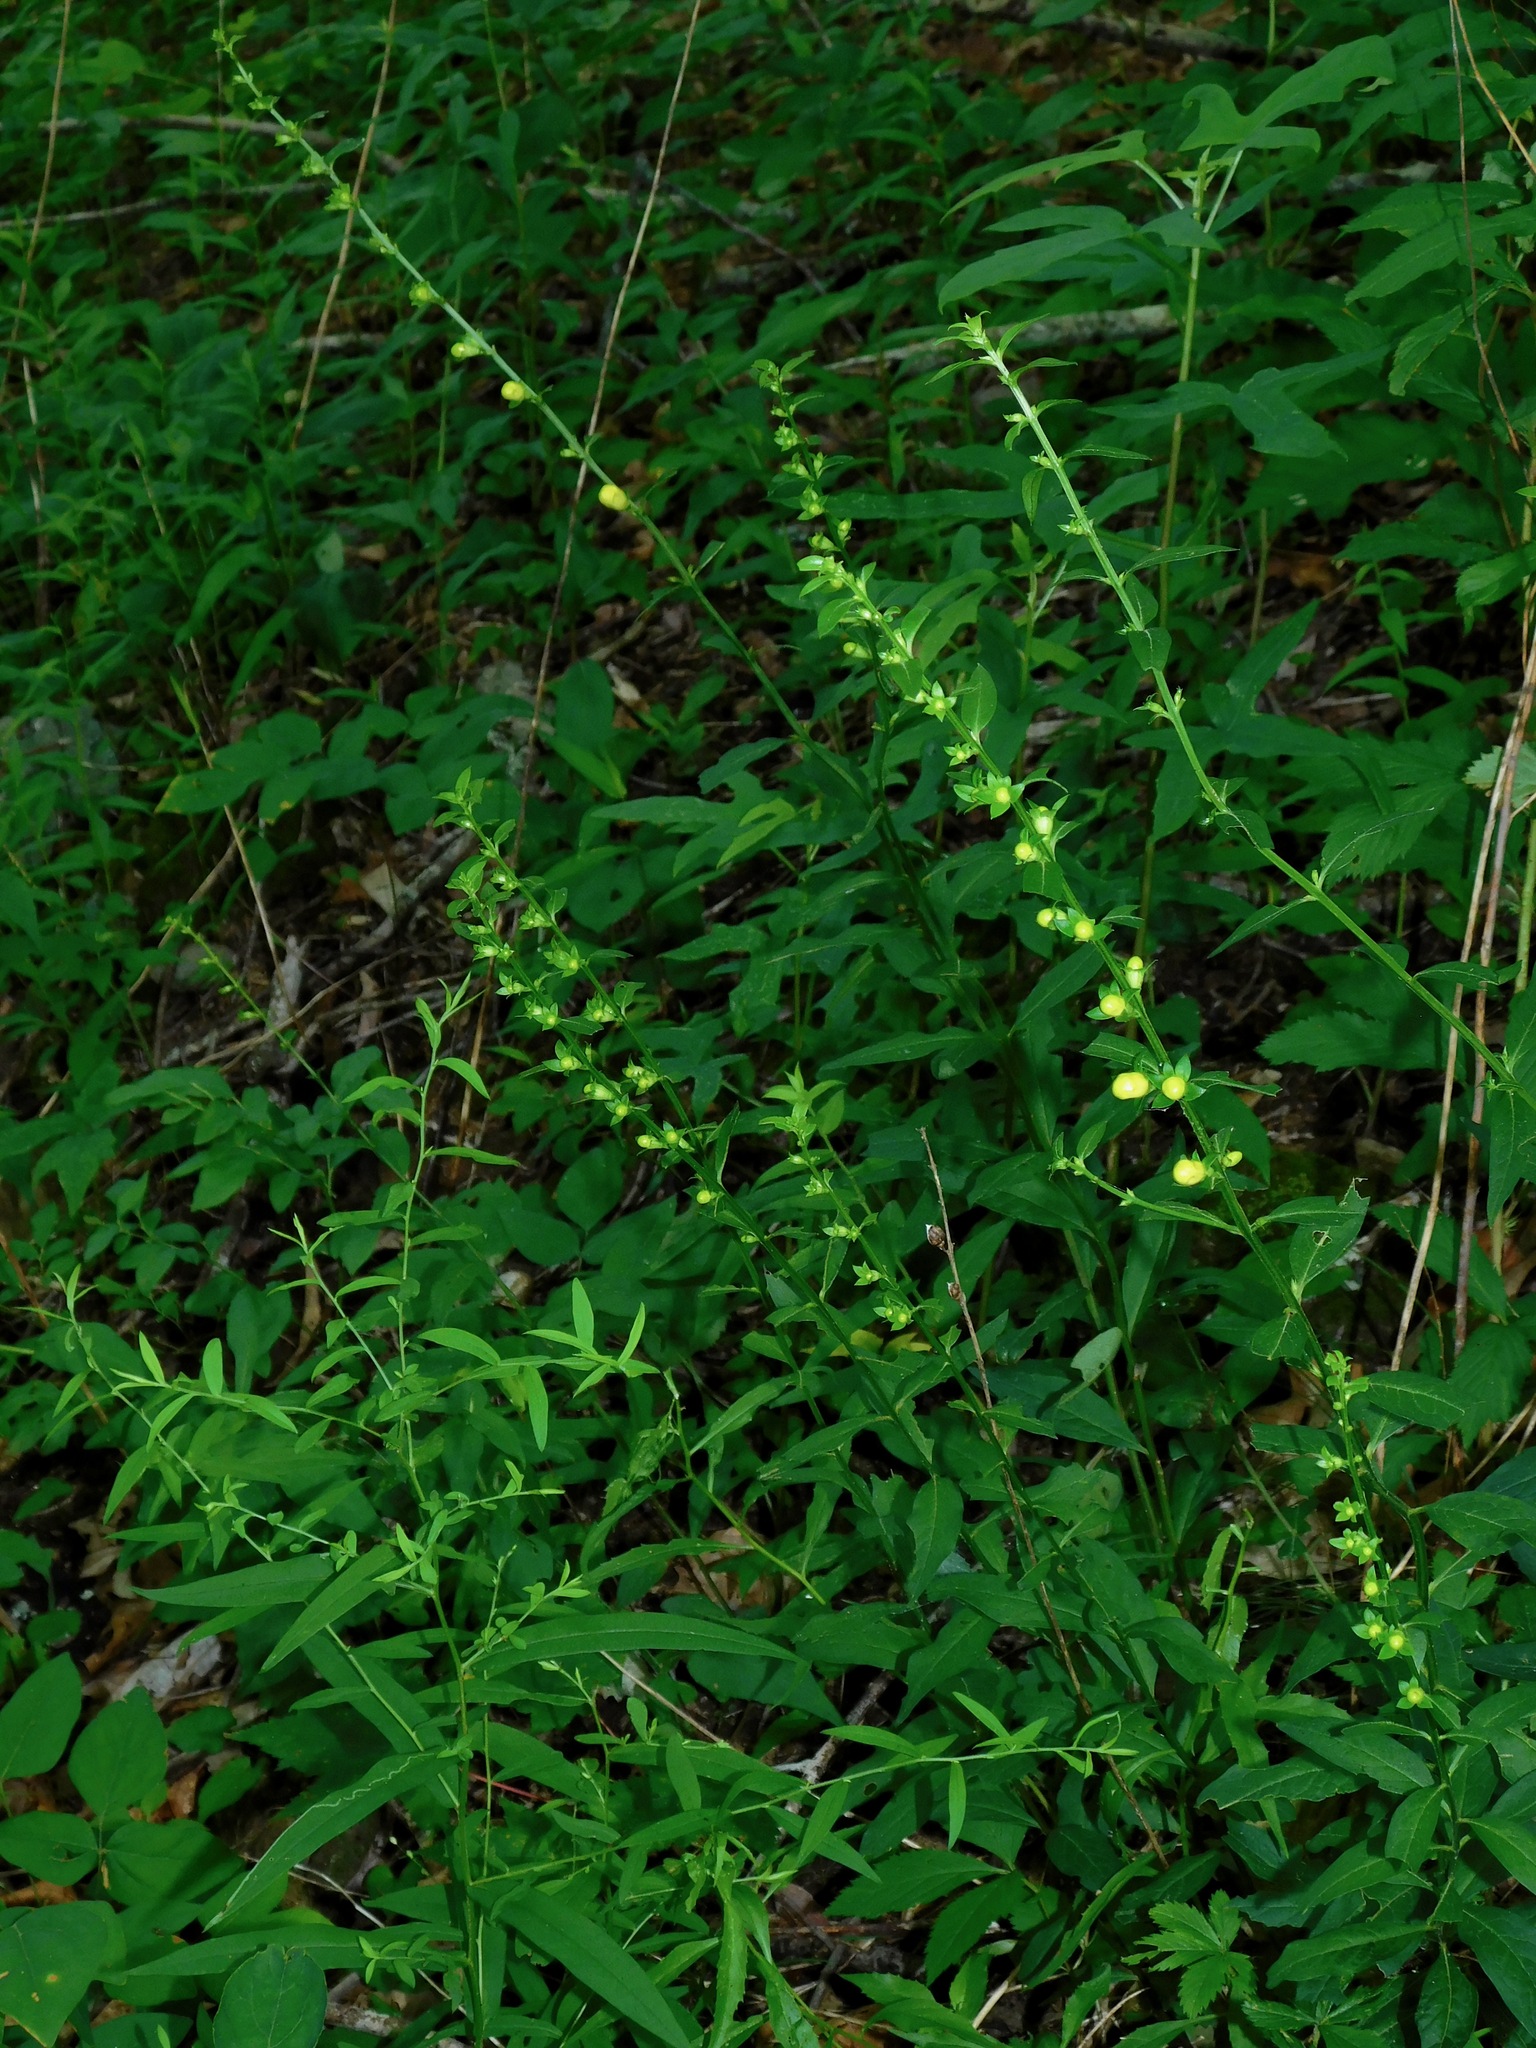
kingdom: Plantae
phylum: Tracheophyta
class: Magnoliopsida
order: Lamiales
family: Orobanchaceae
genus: Aureolaria
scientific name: Aureolaria levigata
